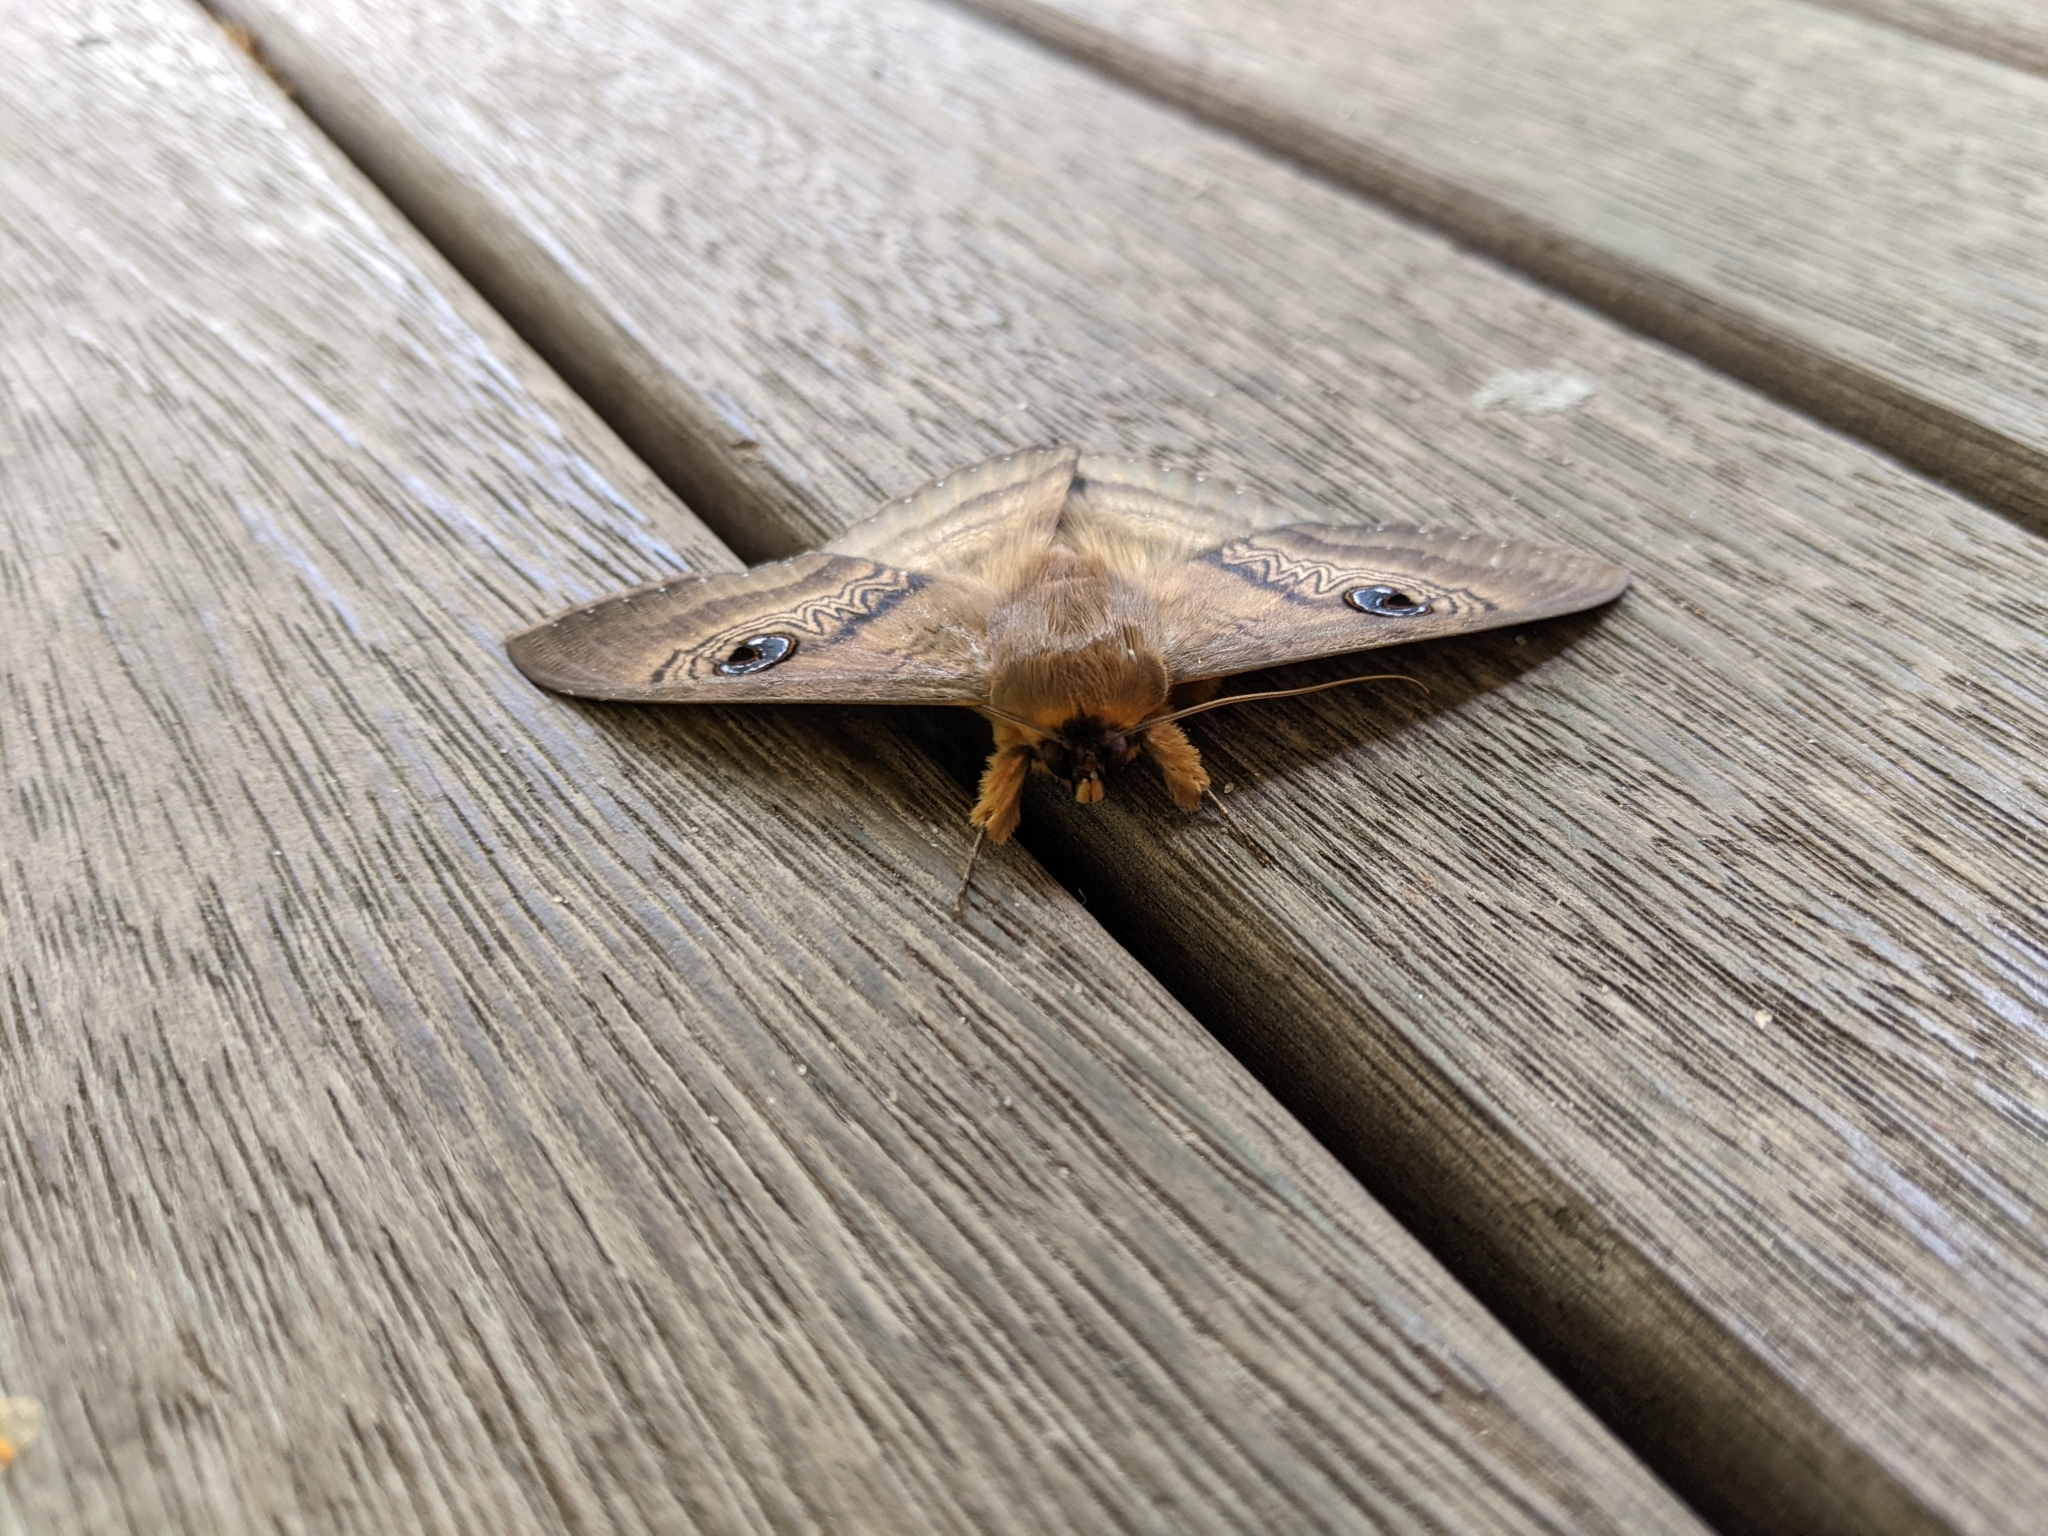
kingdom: Animalia
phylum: Arthropoda
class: Insecta
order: Lepidoptera
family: Erebidae
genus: Dasypodia
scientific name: Dasypodia selenophora
